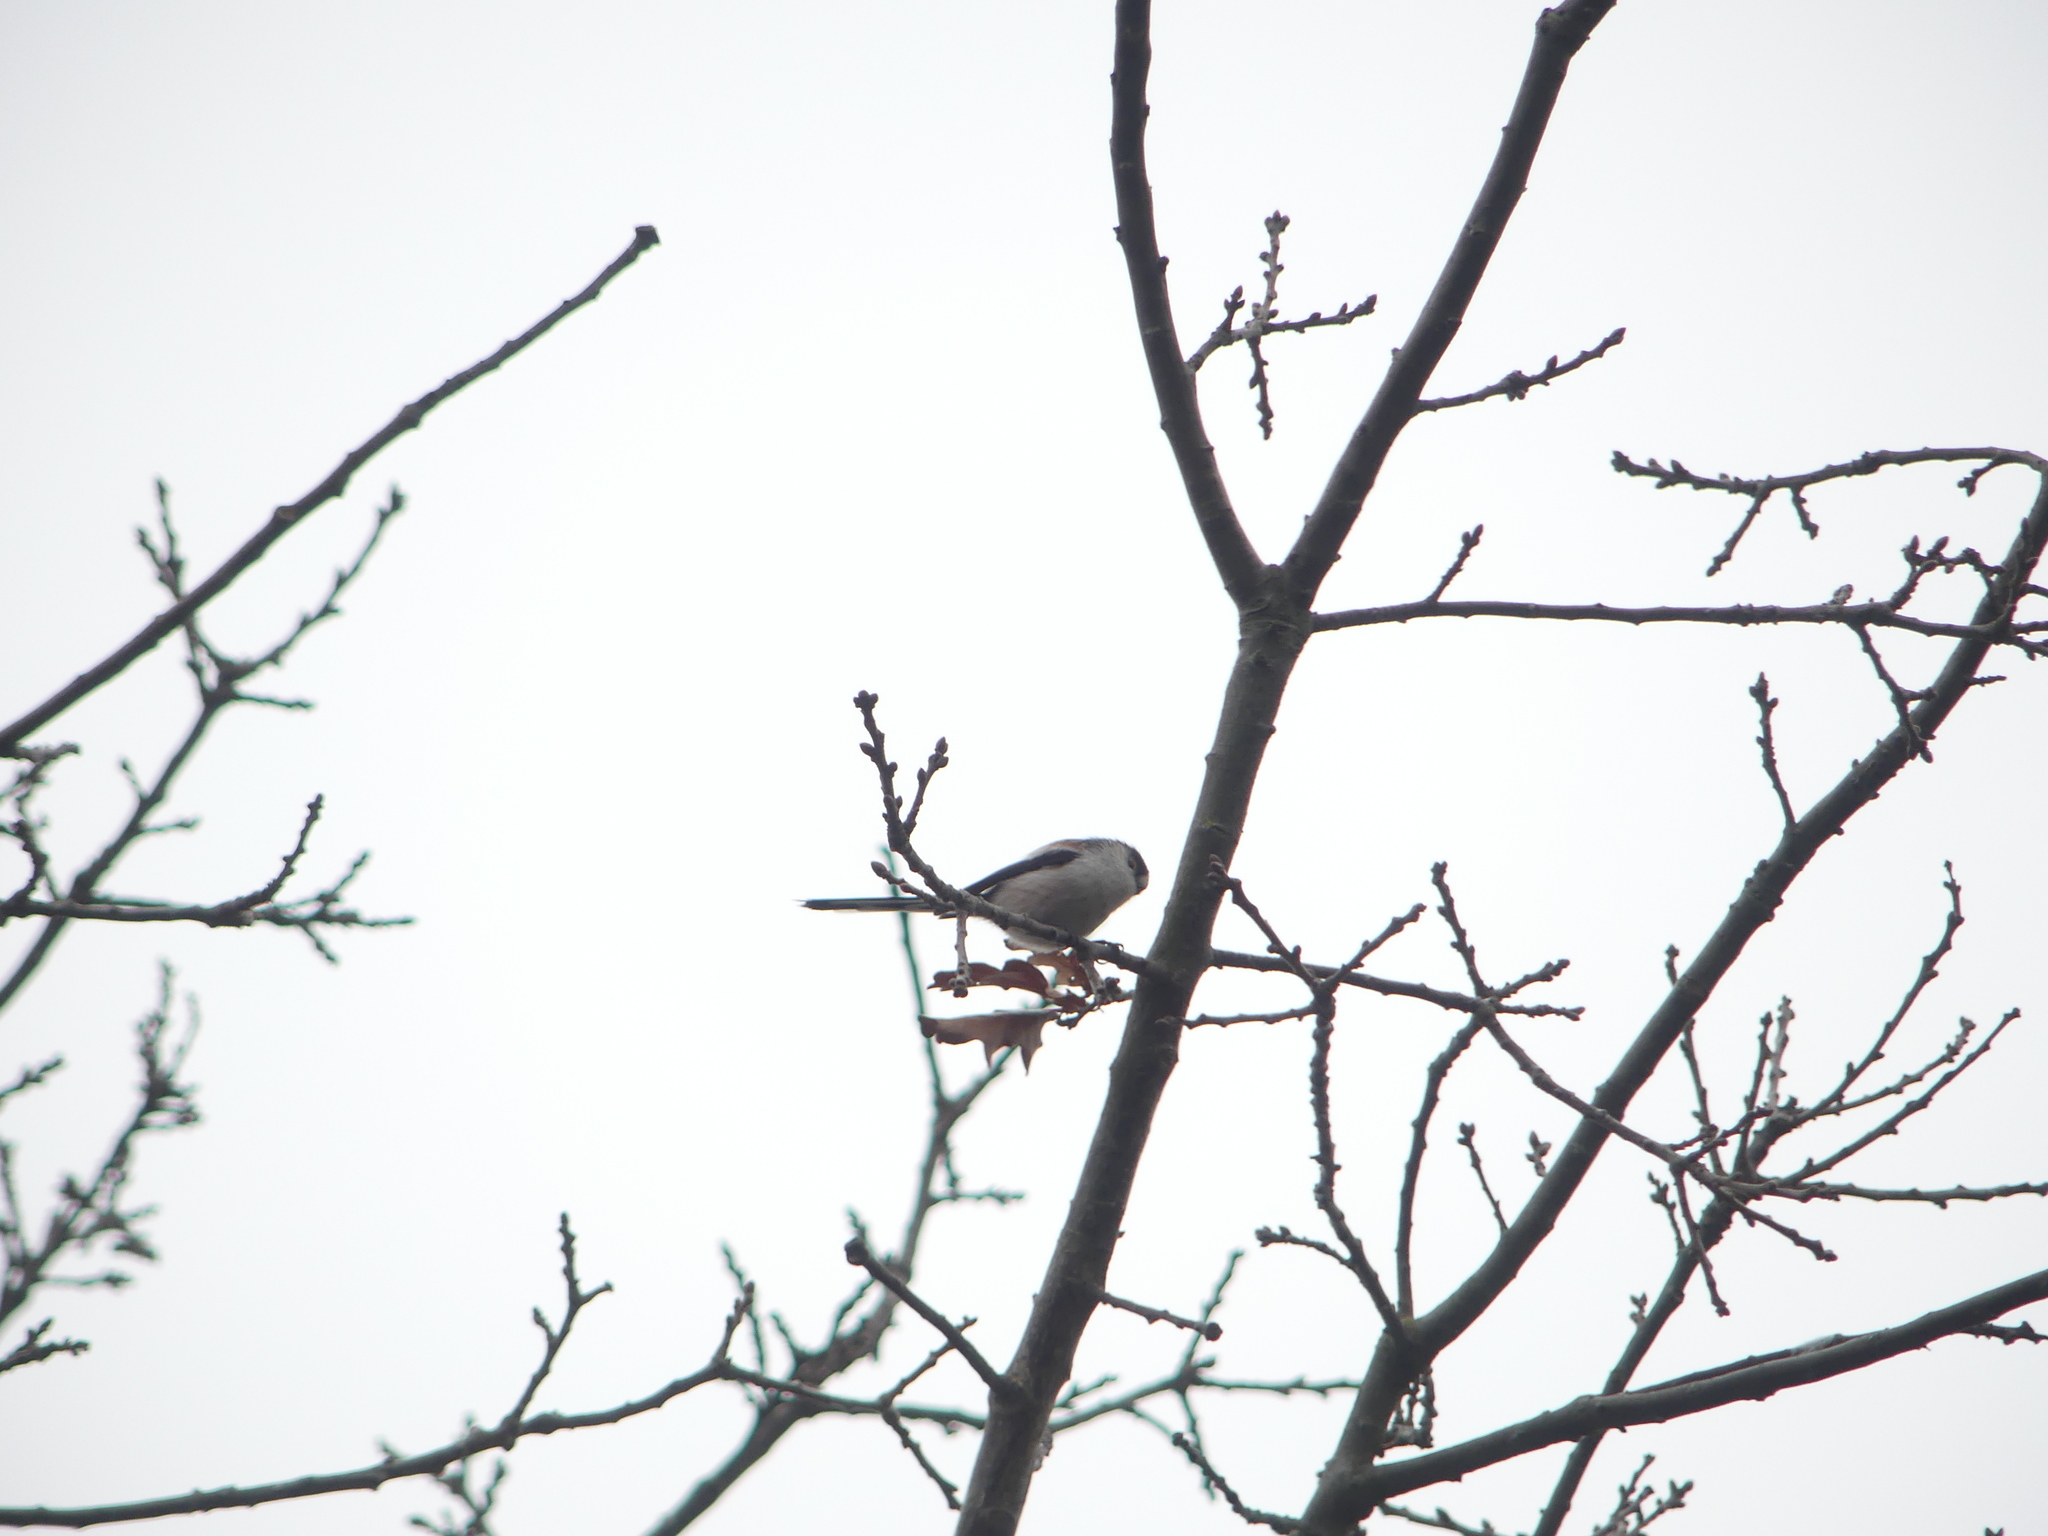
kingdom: Animalia
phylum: Chordata
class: Aves
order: Passeriformes
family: Aegithalidae
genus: Aegithalos
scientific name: Aegithalos caudatus
